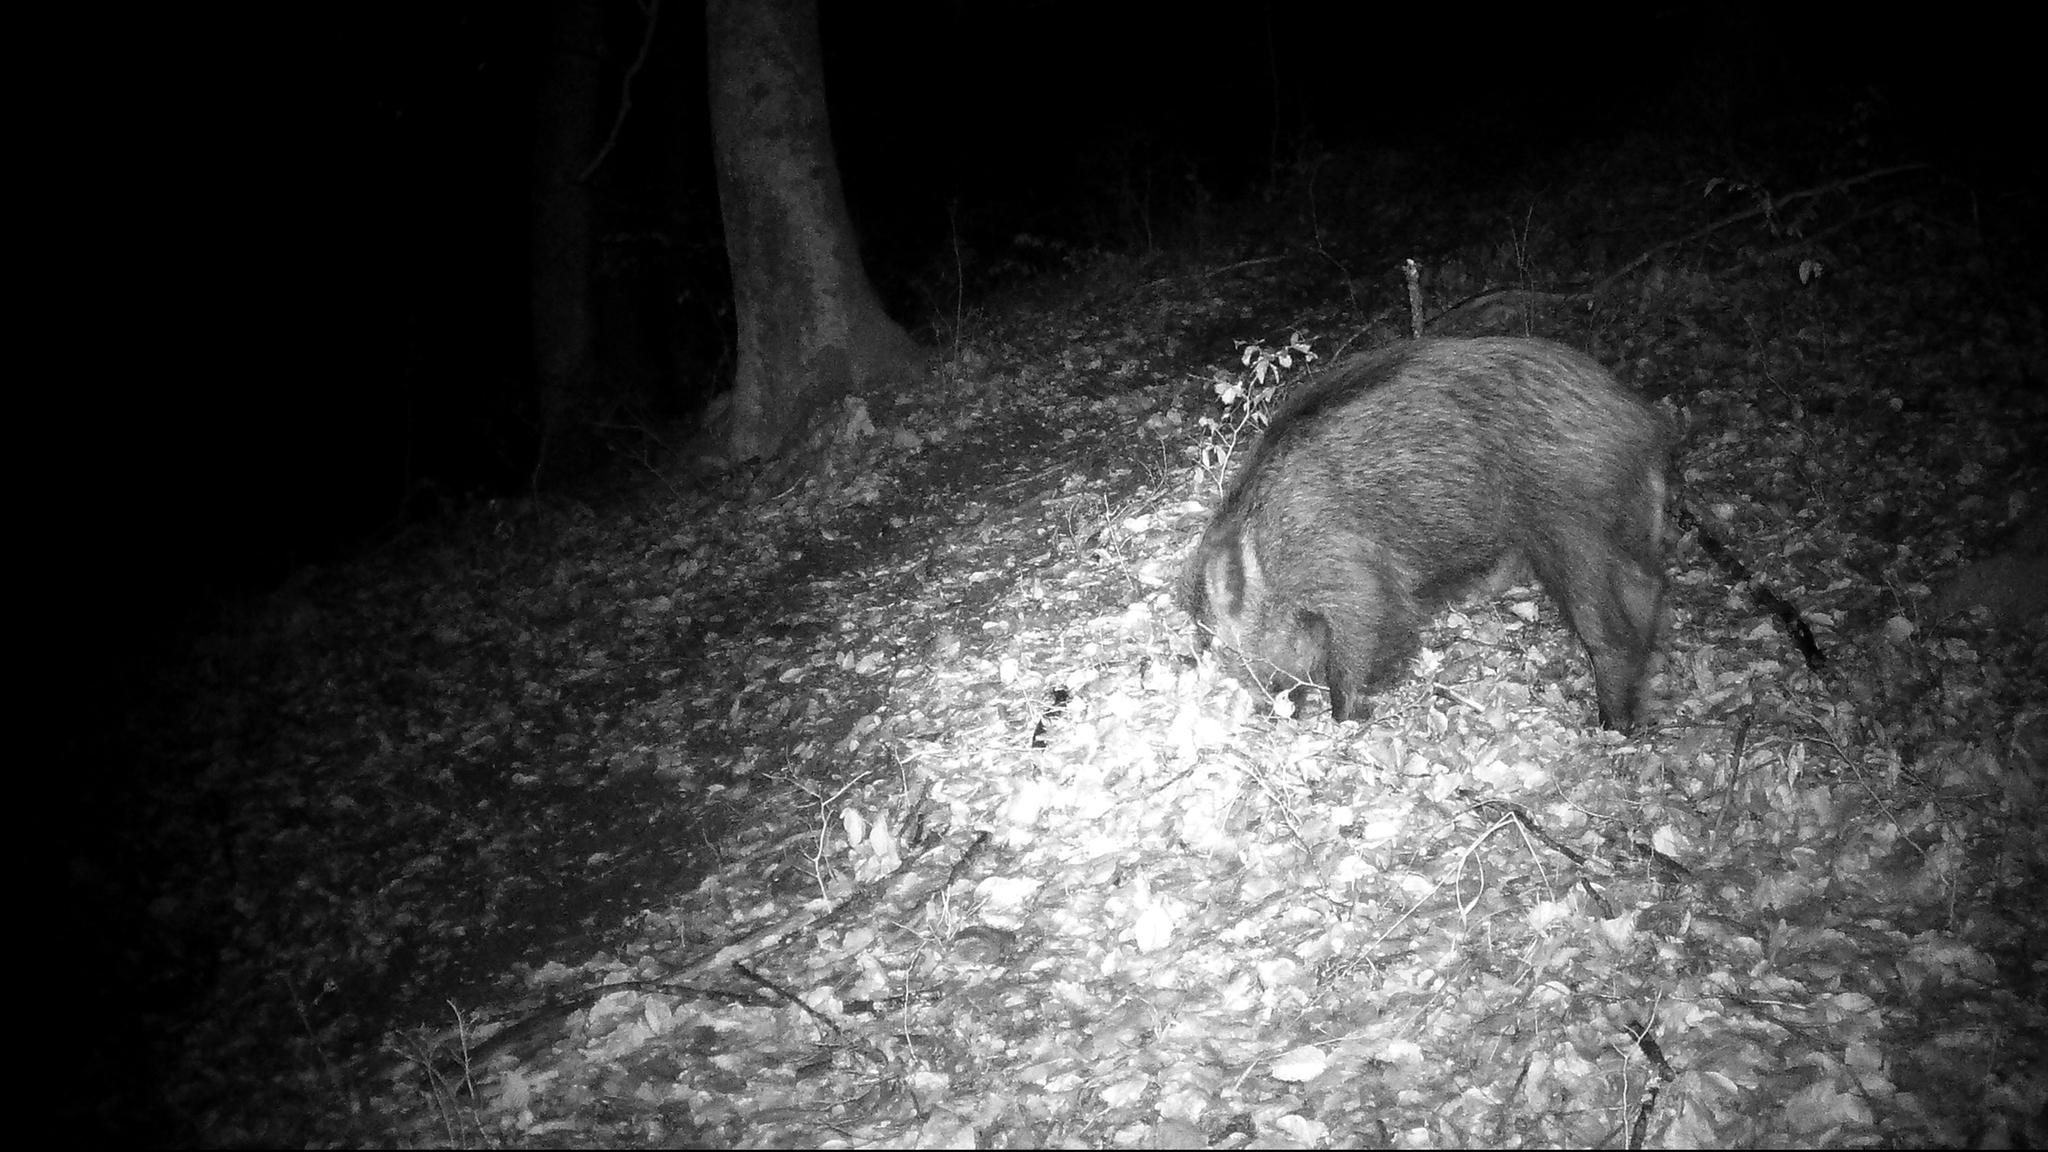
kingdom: Animalia
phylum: Chordata
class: Mammalia
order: Artiodactyla
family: Suidae
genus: Sus
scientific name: Sus scrofa
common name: Wild boar
